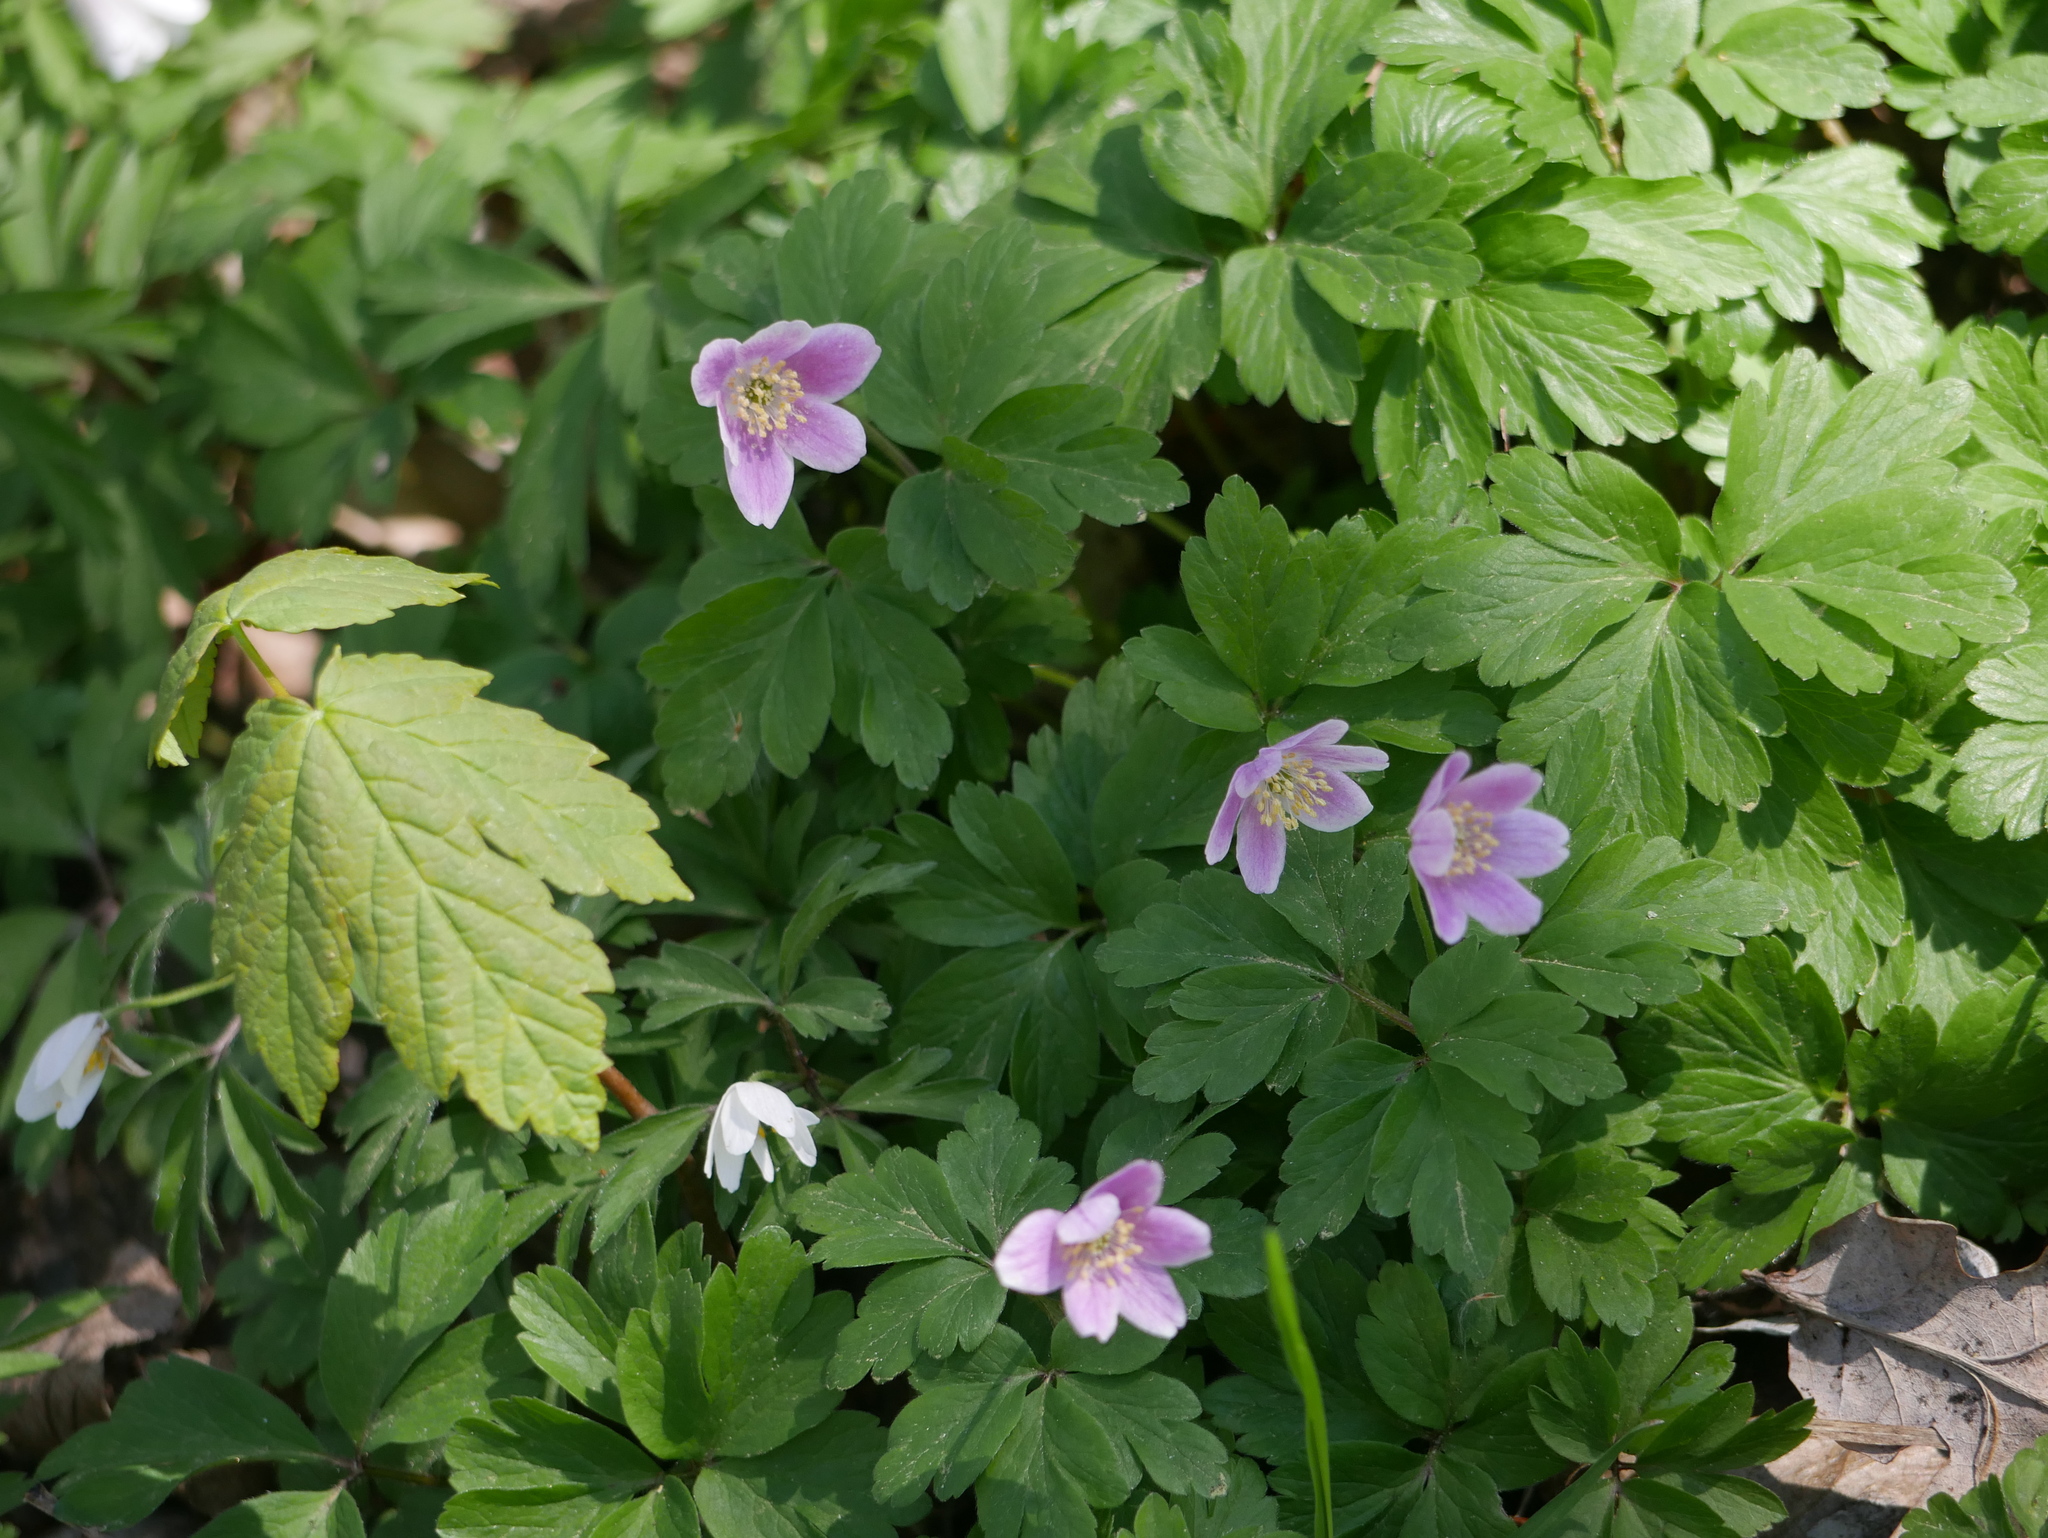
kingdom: Plantae
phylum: Tracheophyta
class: Magnoliopsida
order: Ranunculales
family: Ranunculaceae
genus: Anemone
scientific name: Anemone nemorosa
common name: Wood anemone
